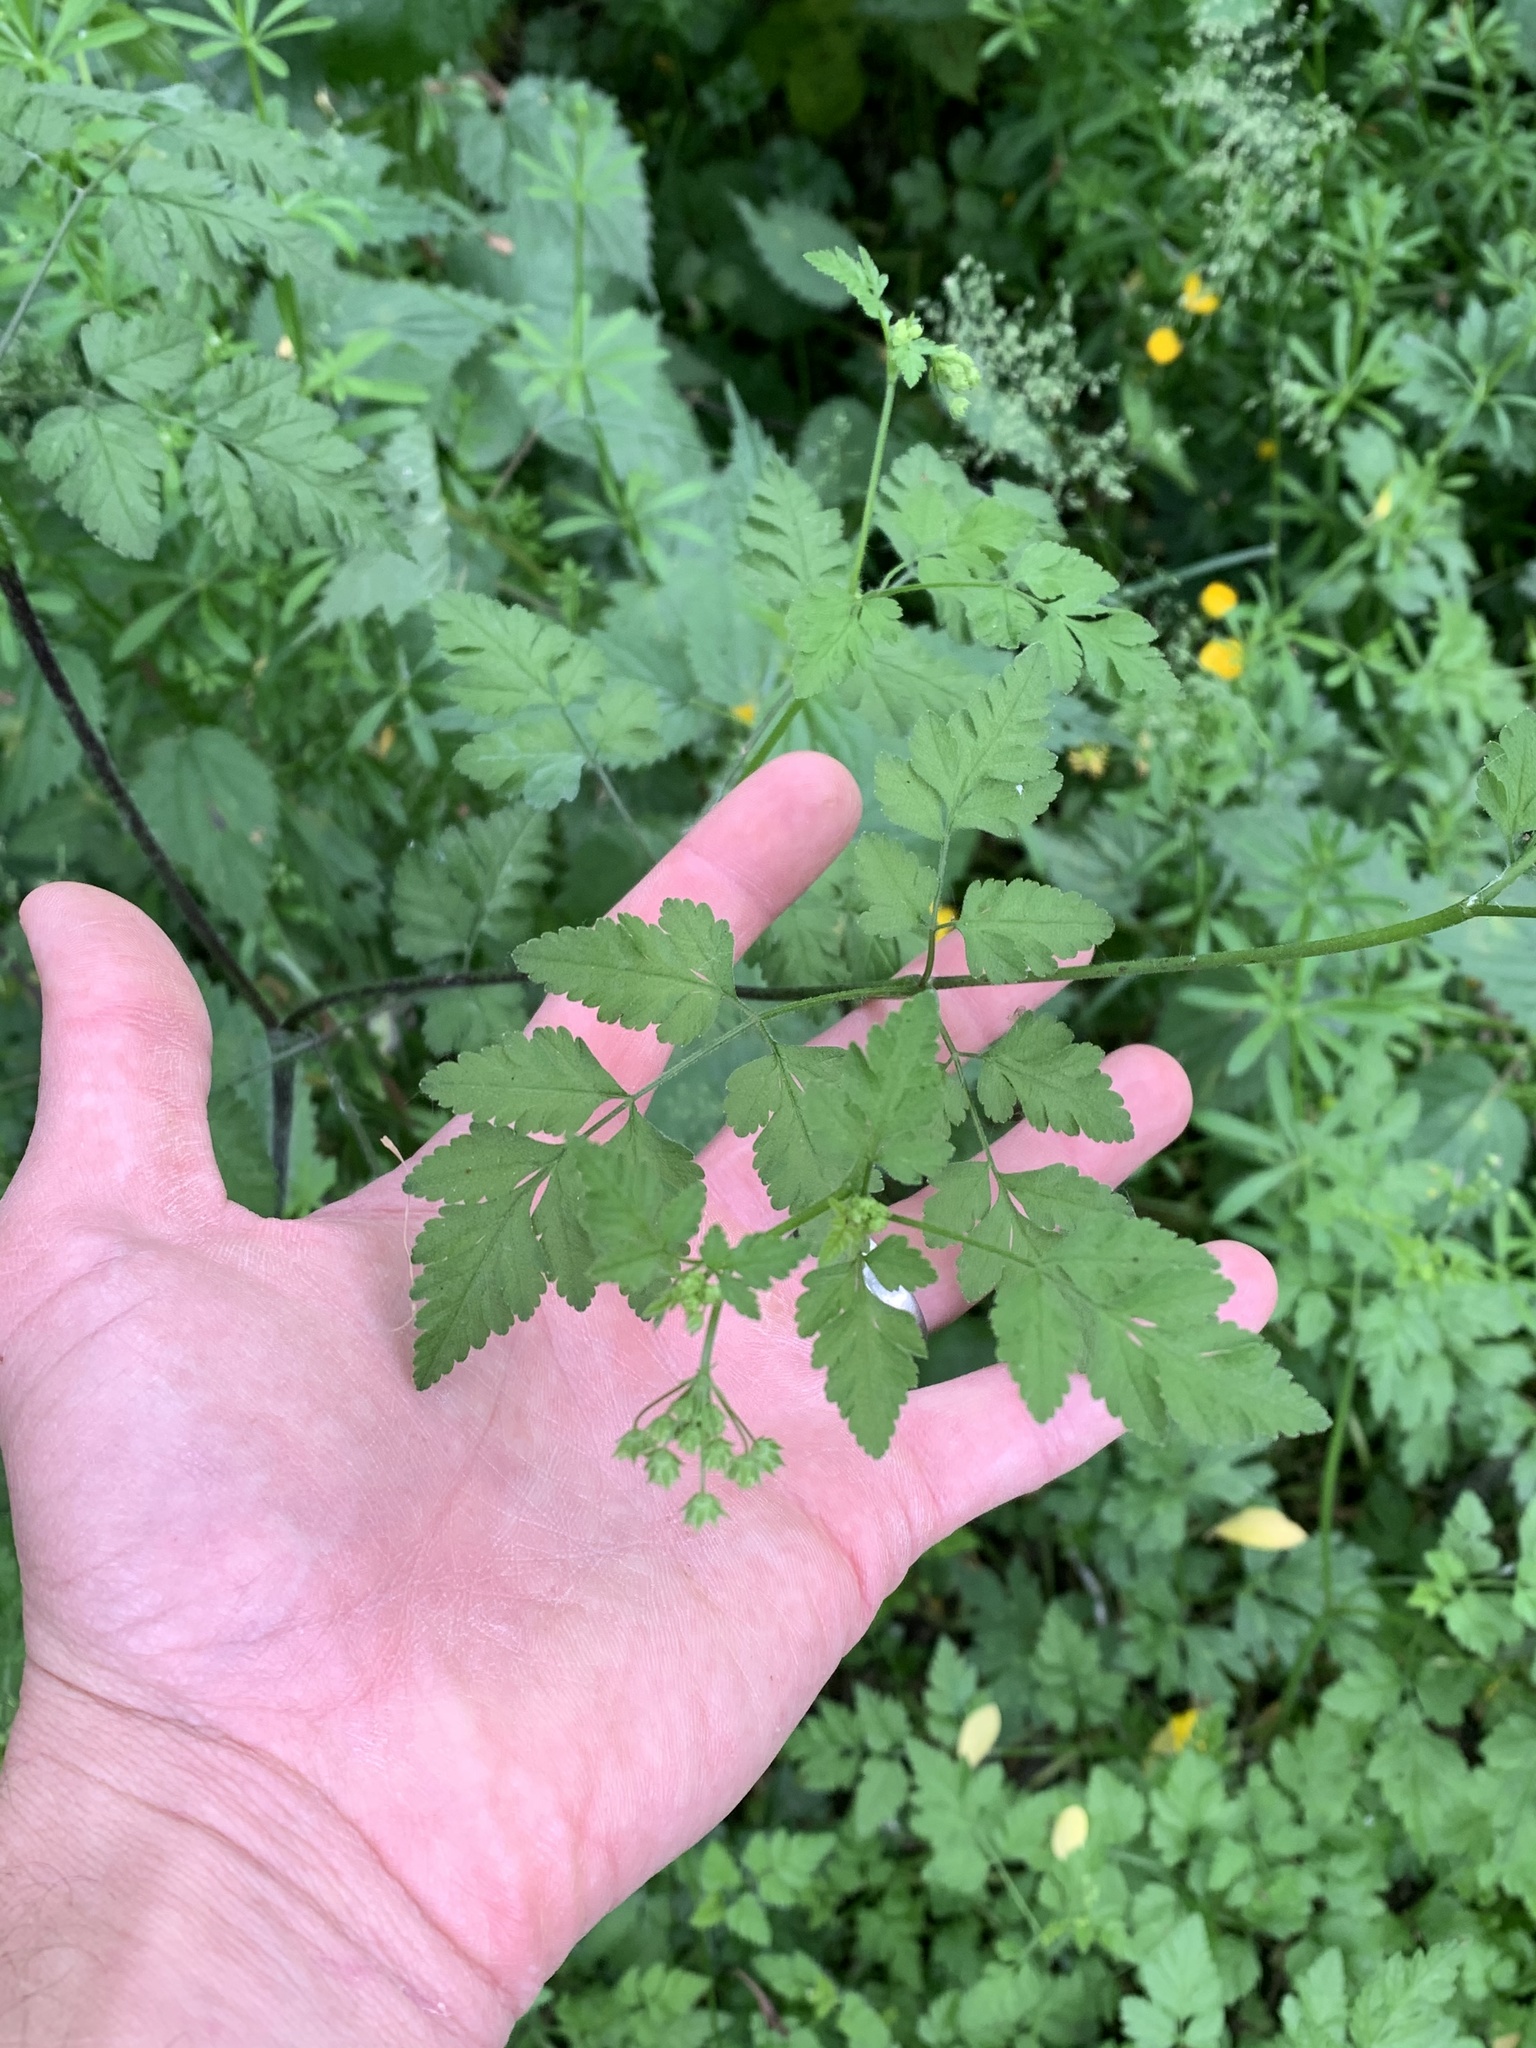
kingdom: Plantae
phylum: Tracheophyta
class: Magnoliopsida
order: Apiales
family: Apiaceae
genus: Chaerophyllum
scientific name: Chaerophyllum temulum
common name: Rough chervil
